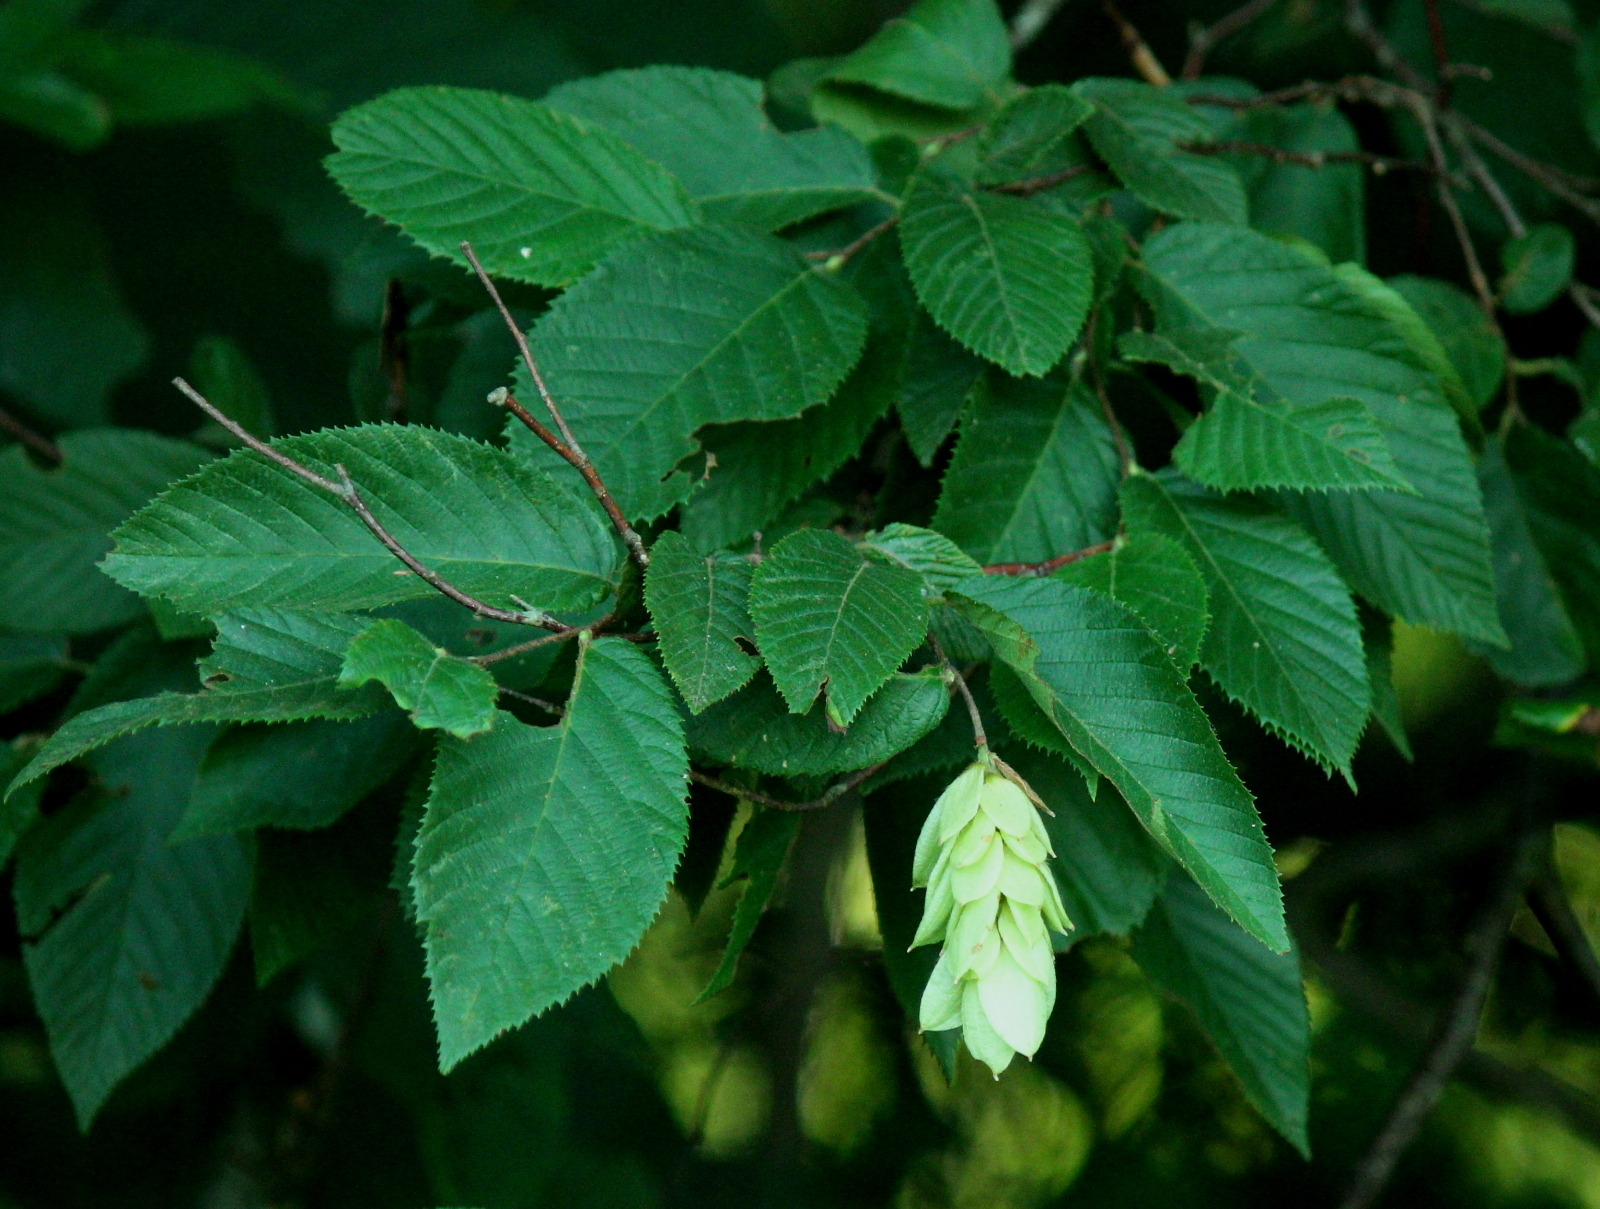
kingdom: Plantae
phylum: Tracheophyta
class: Magnoliopsida
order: Fagales
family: Betulaceae
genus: Ostrya
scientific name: Ostrya virginiana
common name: Ironwood
